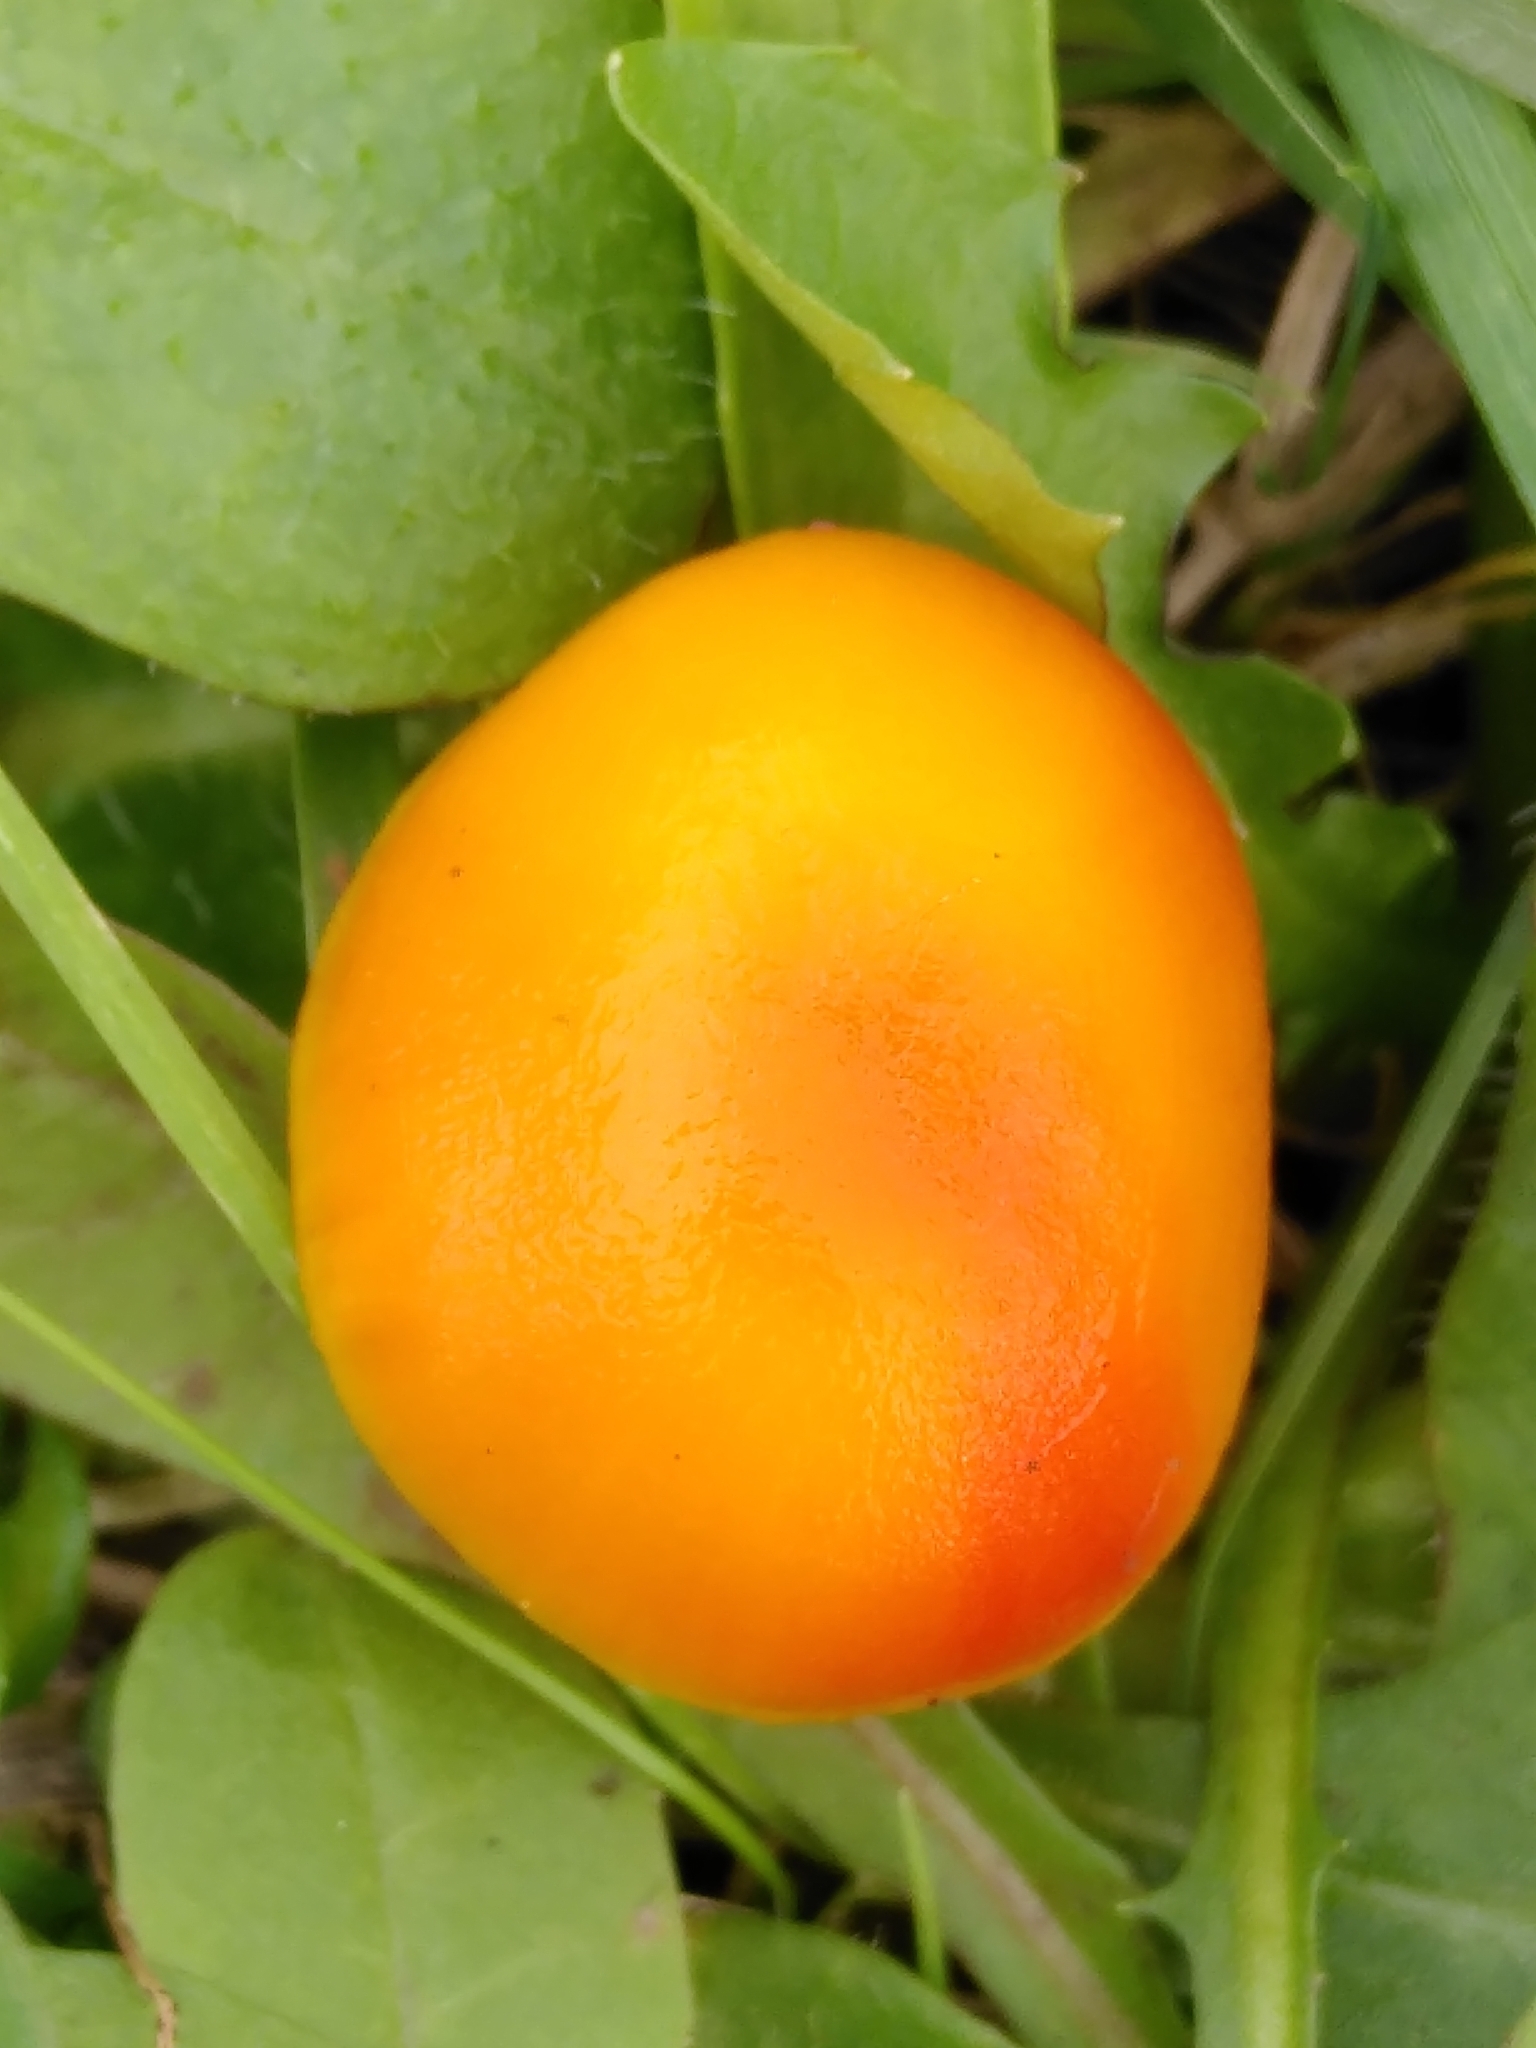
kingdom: Fungi
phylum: Basidiomycota
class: Agaricomycetes
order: Agaricales
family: Hygrophoraceae
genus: Hygrocybe
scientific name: Hygrocybe ceracea
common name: Butter waxcap
